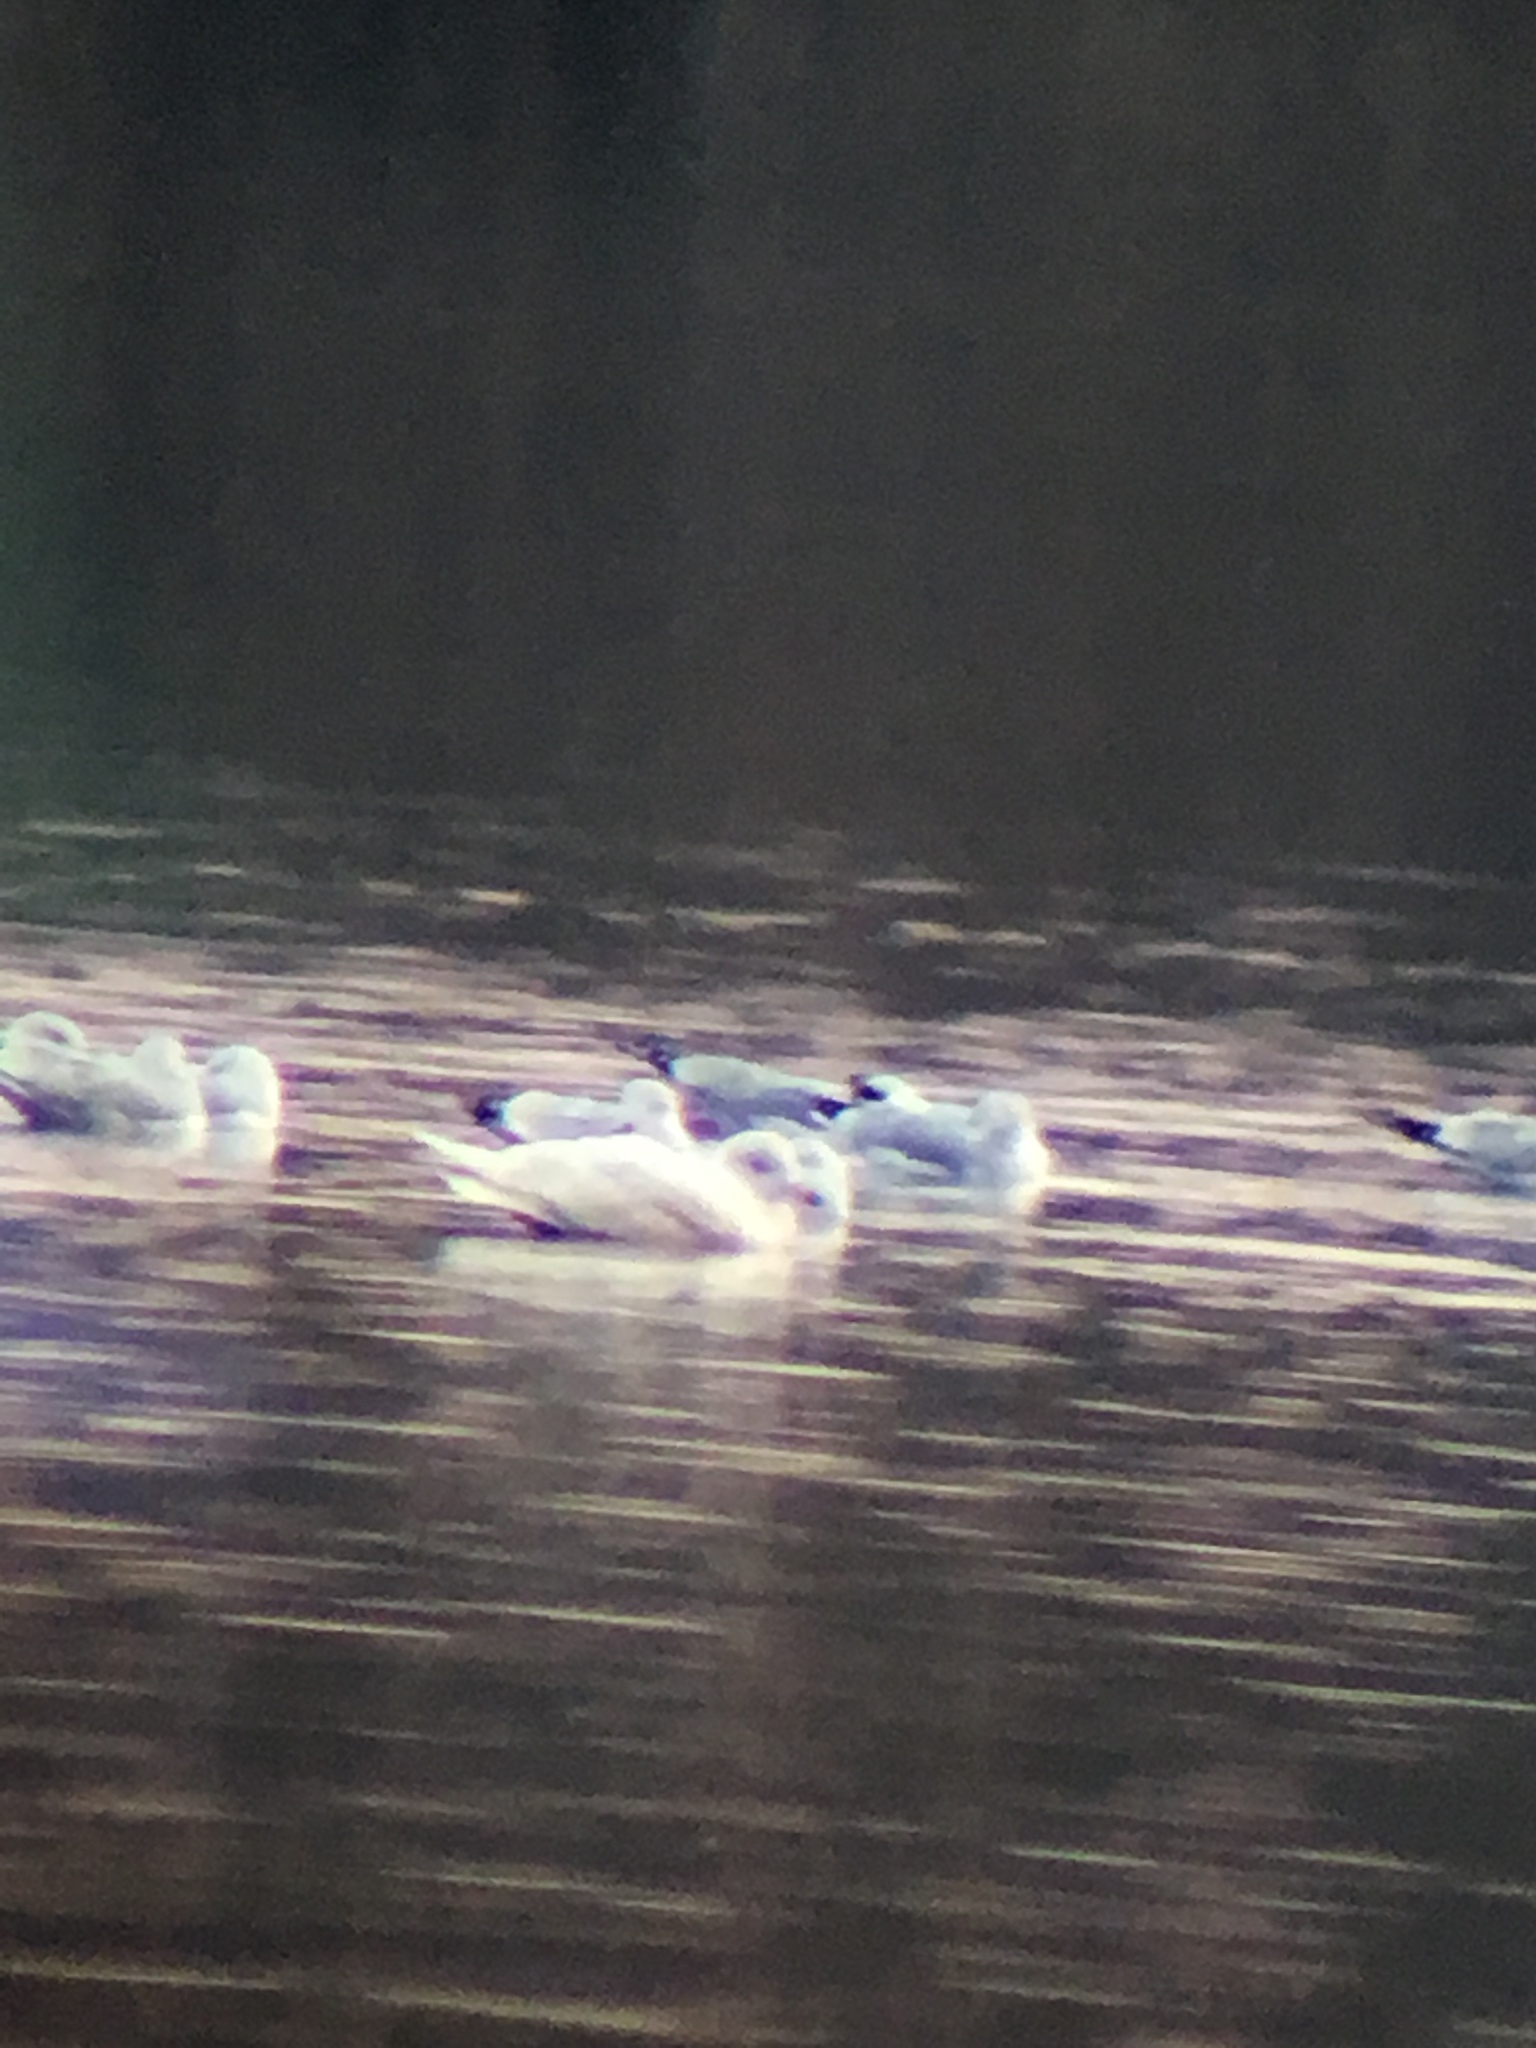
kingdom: Animalia
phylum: Chordata
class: Aves
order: Charadriiformes
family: Laridae
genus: Larus
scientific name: Larus hyperboreus
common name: Glaucous gull
